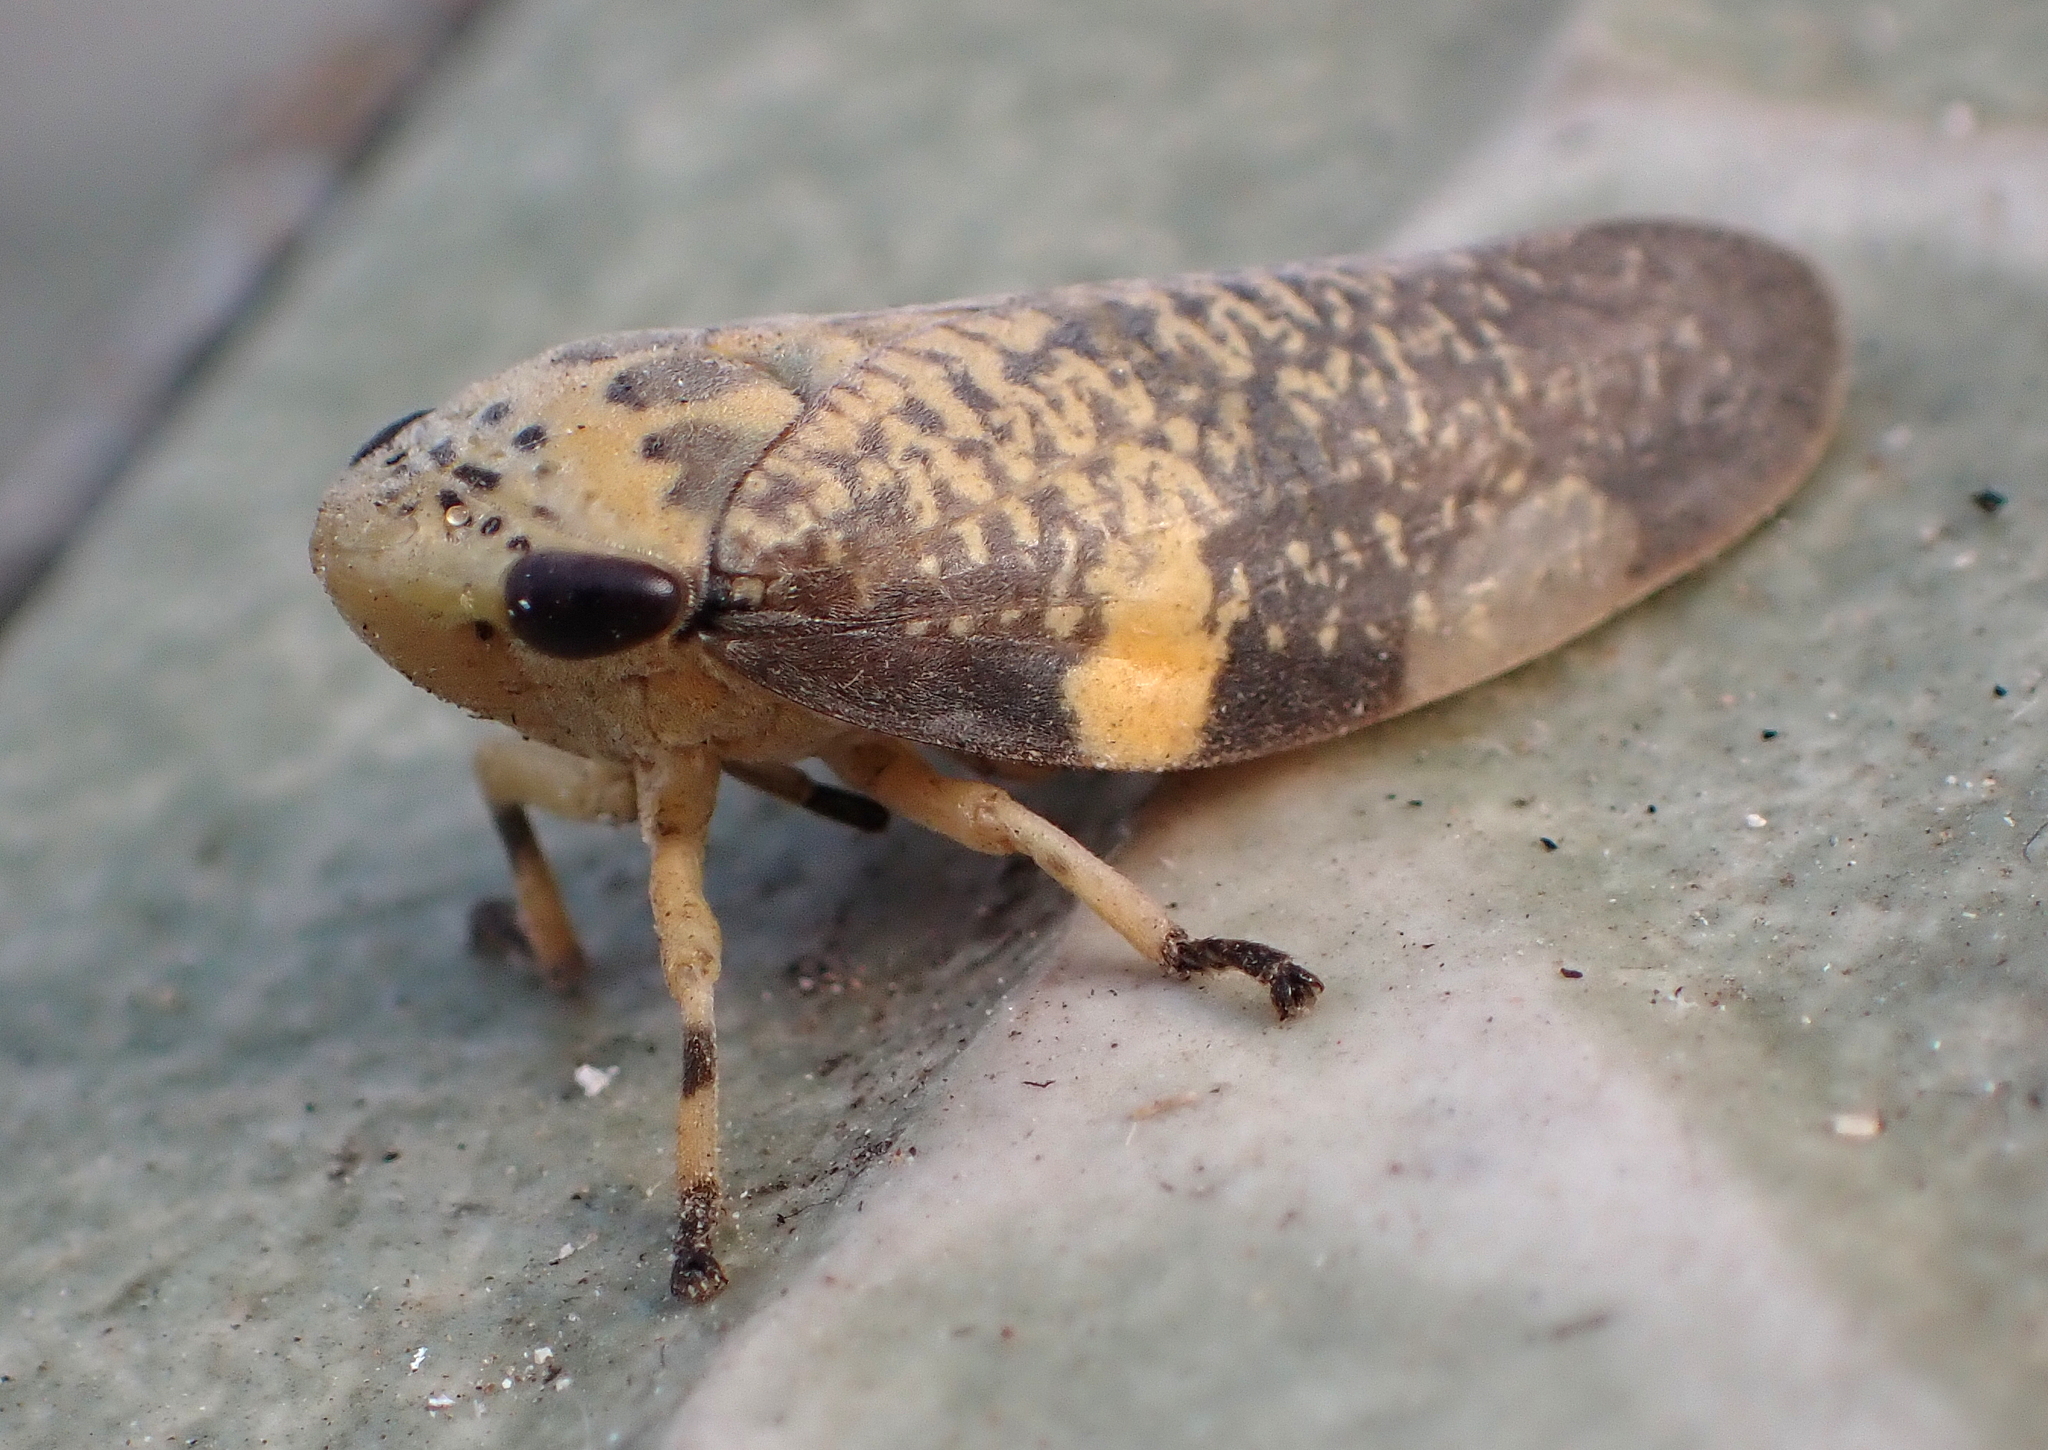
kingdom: Animalia
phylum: Arthropoda
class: Insecta
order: Hemiptera
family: Aphrophoridae
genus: Ptyelus
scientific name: Ptyelus grossus
